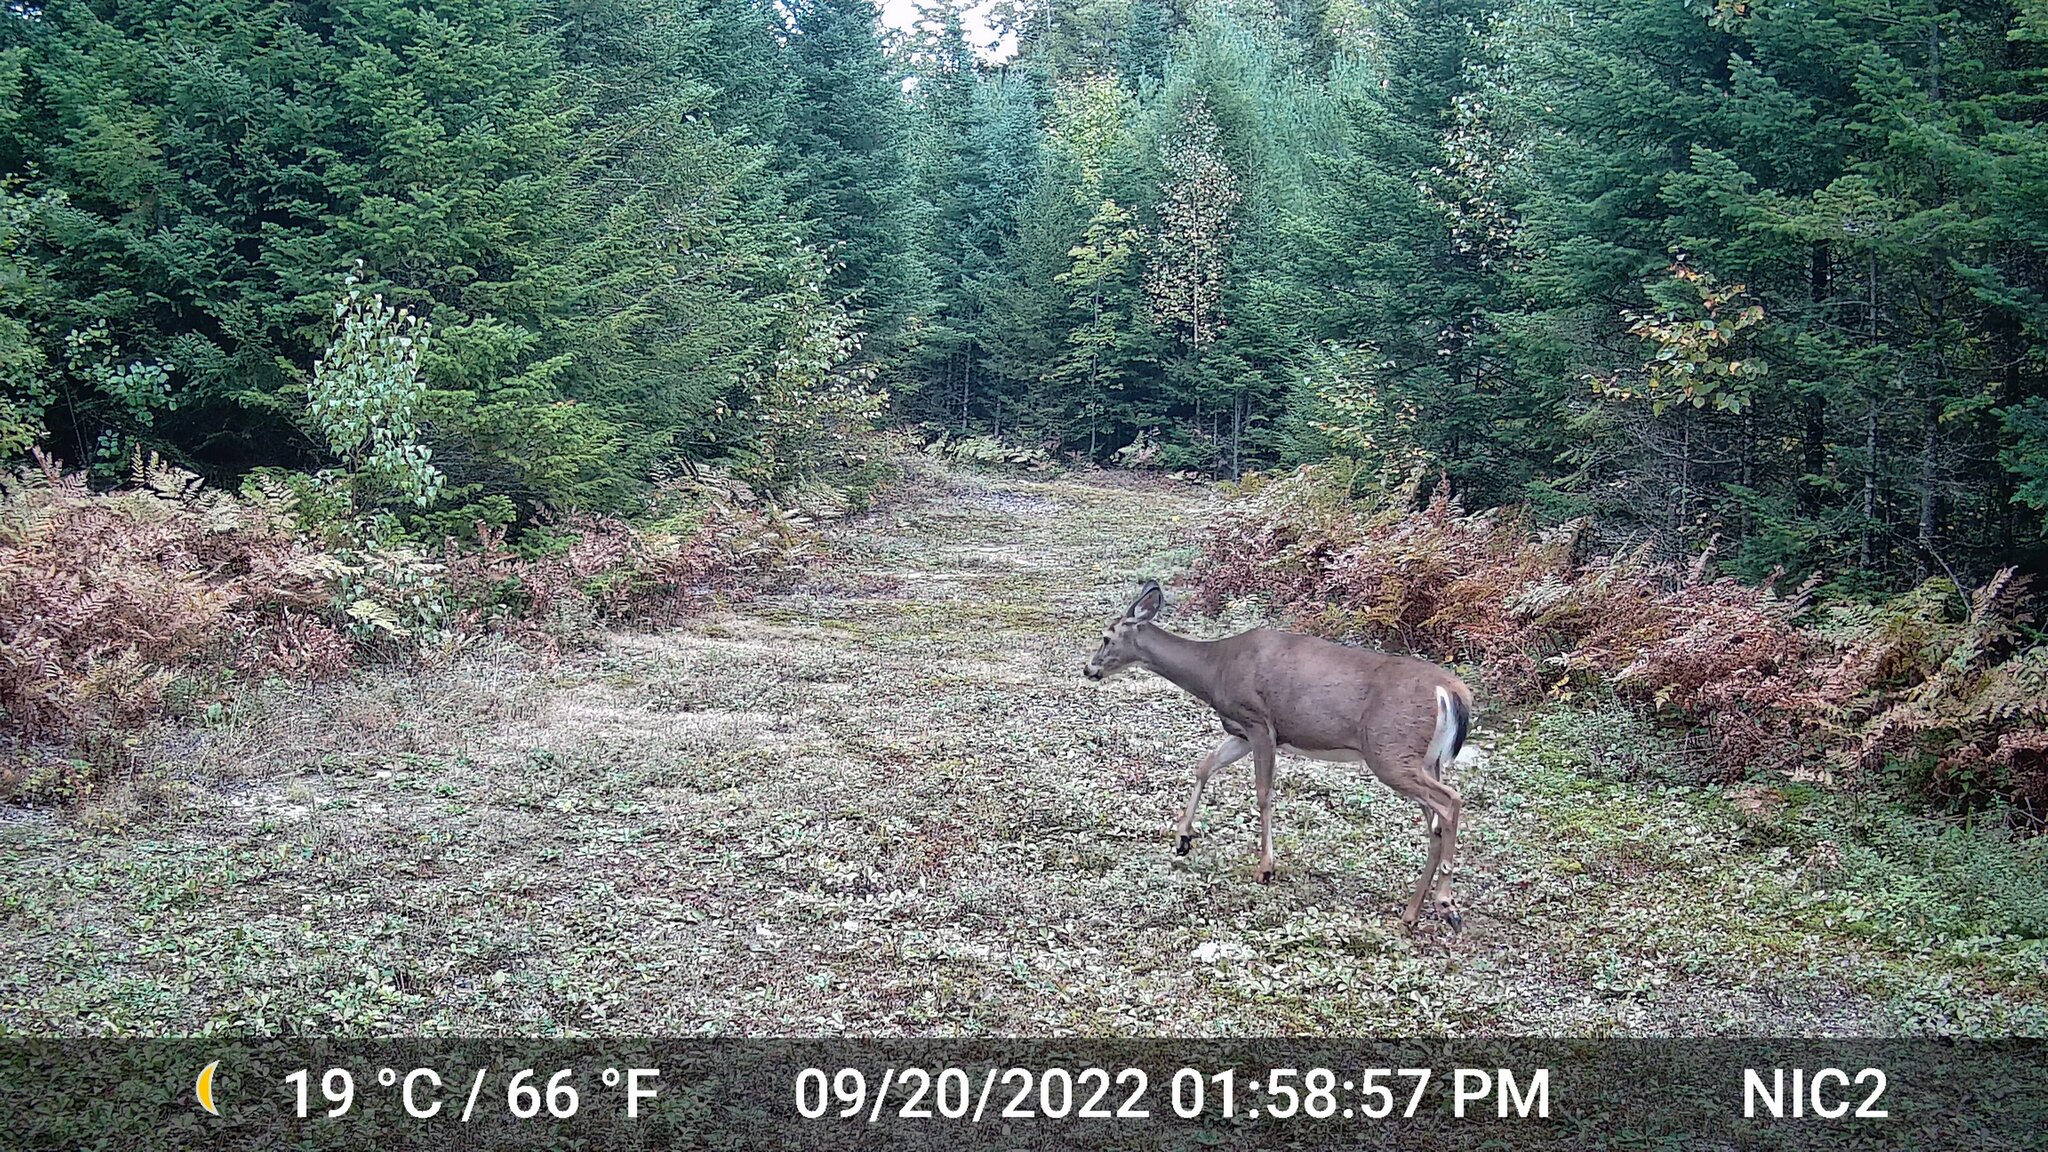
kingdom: Animalia
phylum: Chordata
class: Mammalia
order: Artiodactyla
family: Cervidae
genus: Odocoileus
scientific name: Odocoileus virginianus
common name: White-tailed deer
